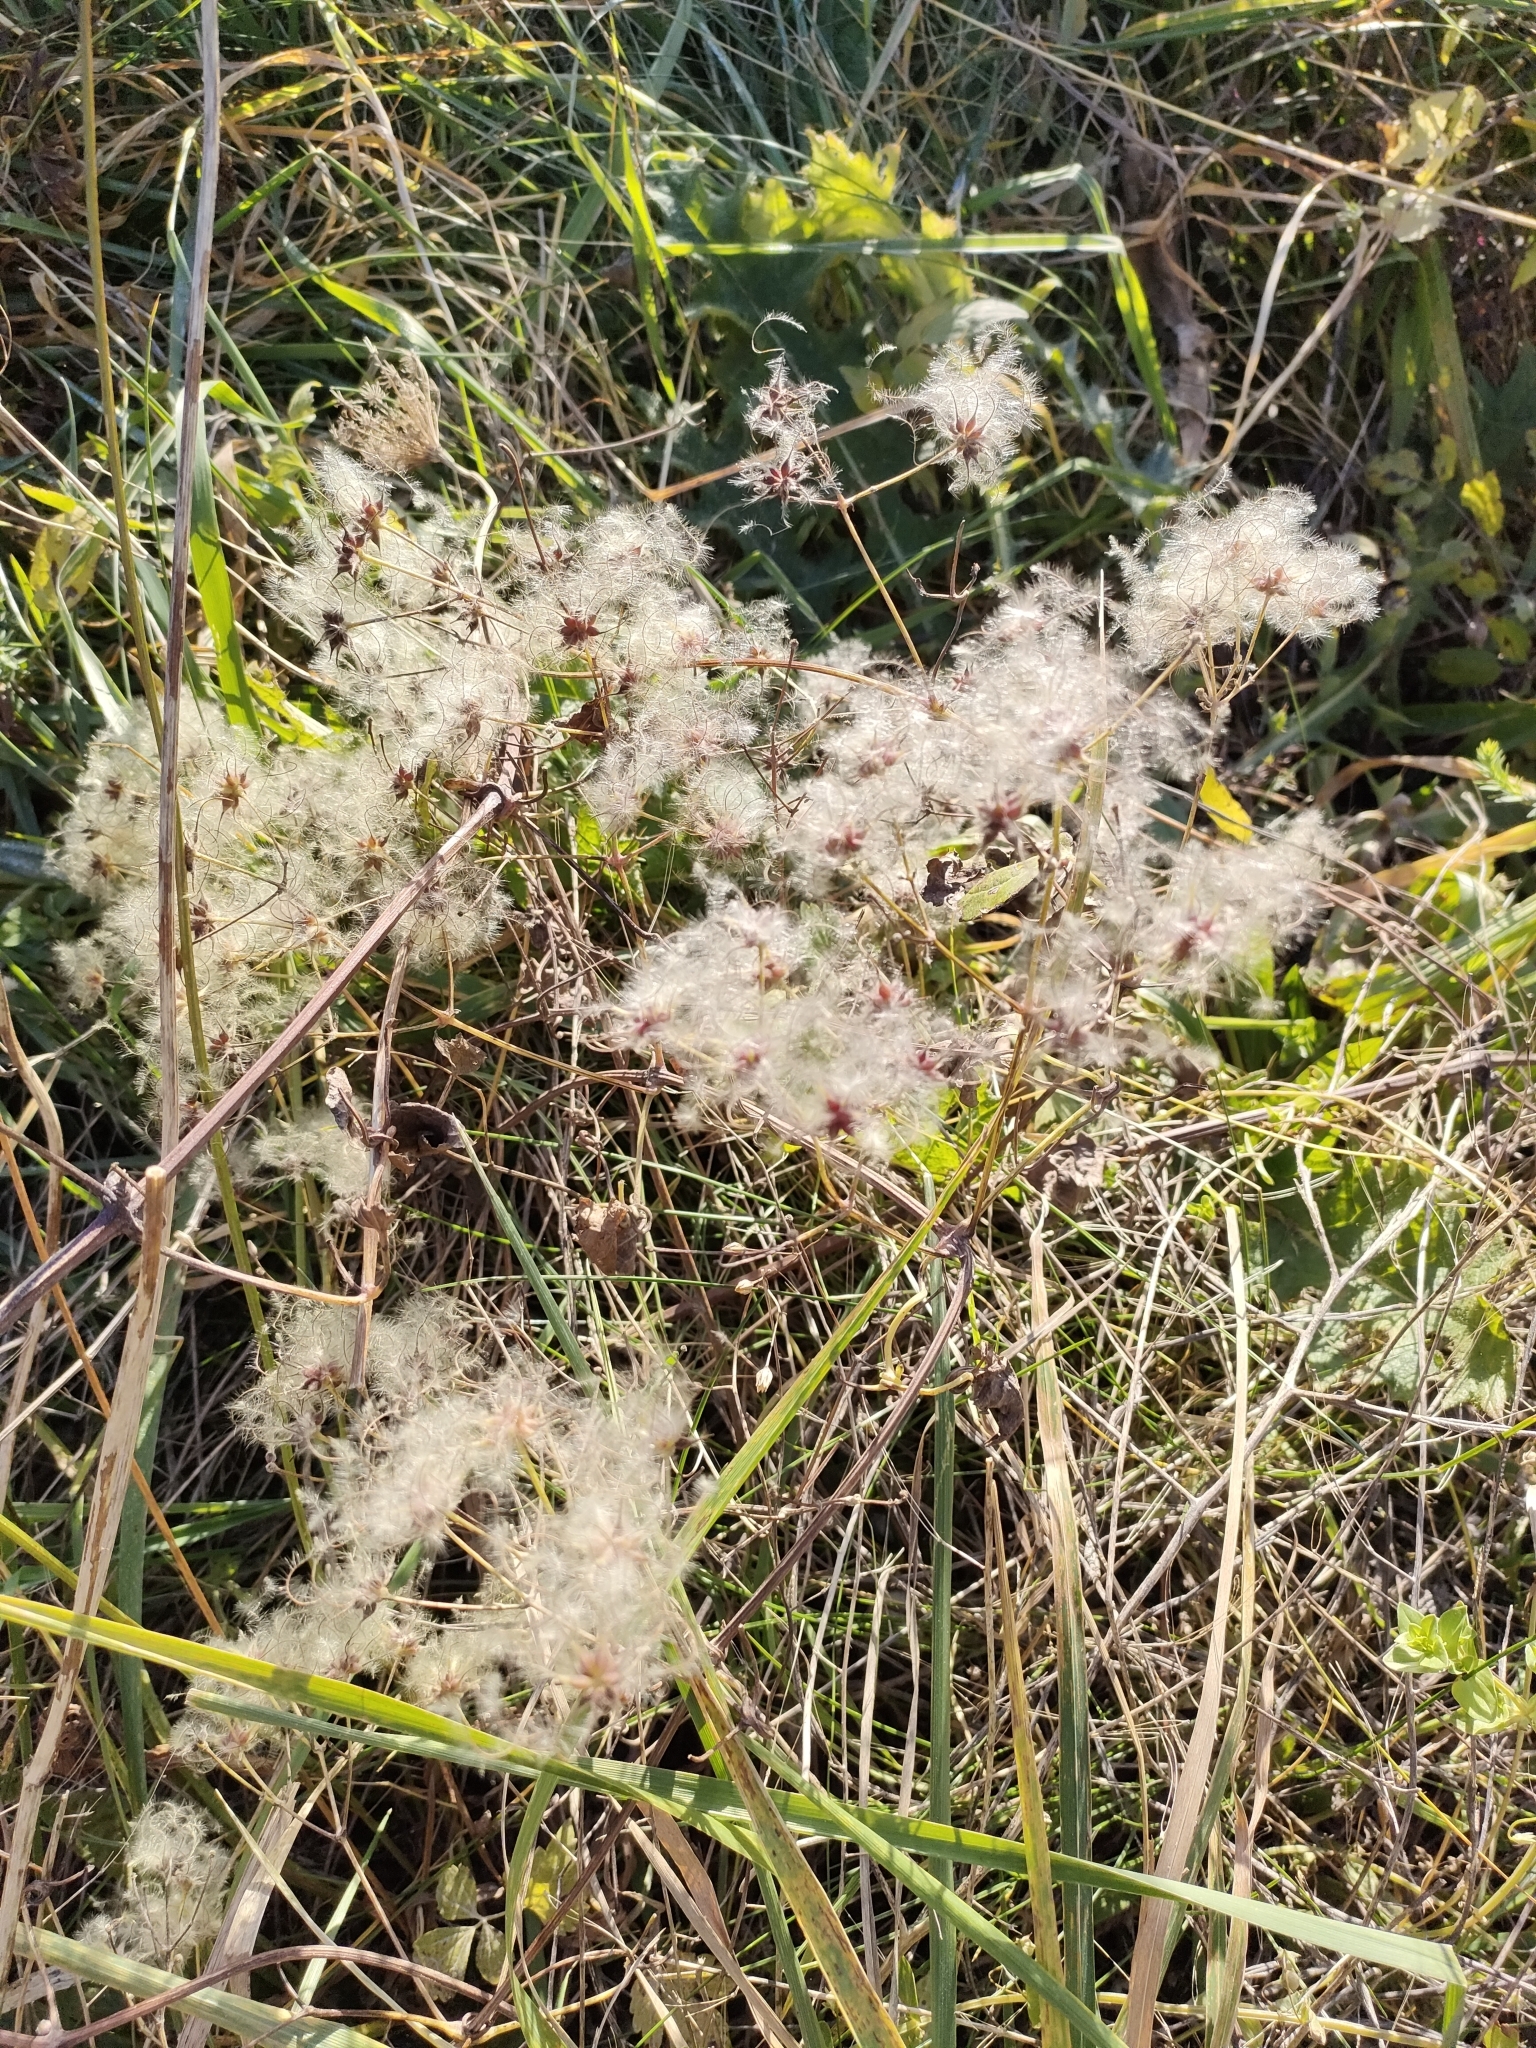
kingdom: Plantae
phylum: Tracheophyta
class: Magnoliopsida
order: Ranunculales
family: Ranunculaceae
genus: Clematis
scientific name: Clematis vitalba
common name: Evergreen clematis
